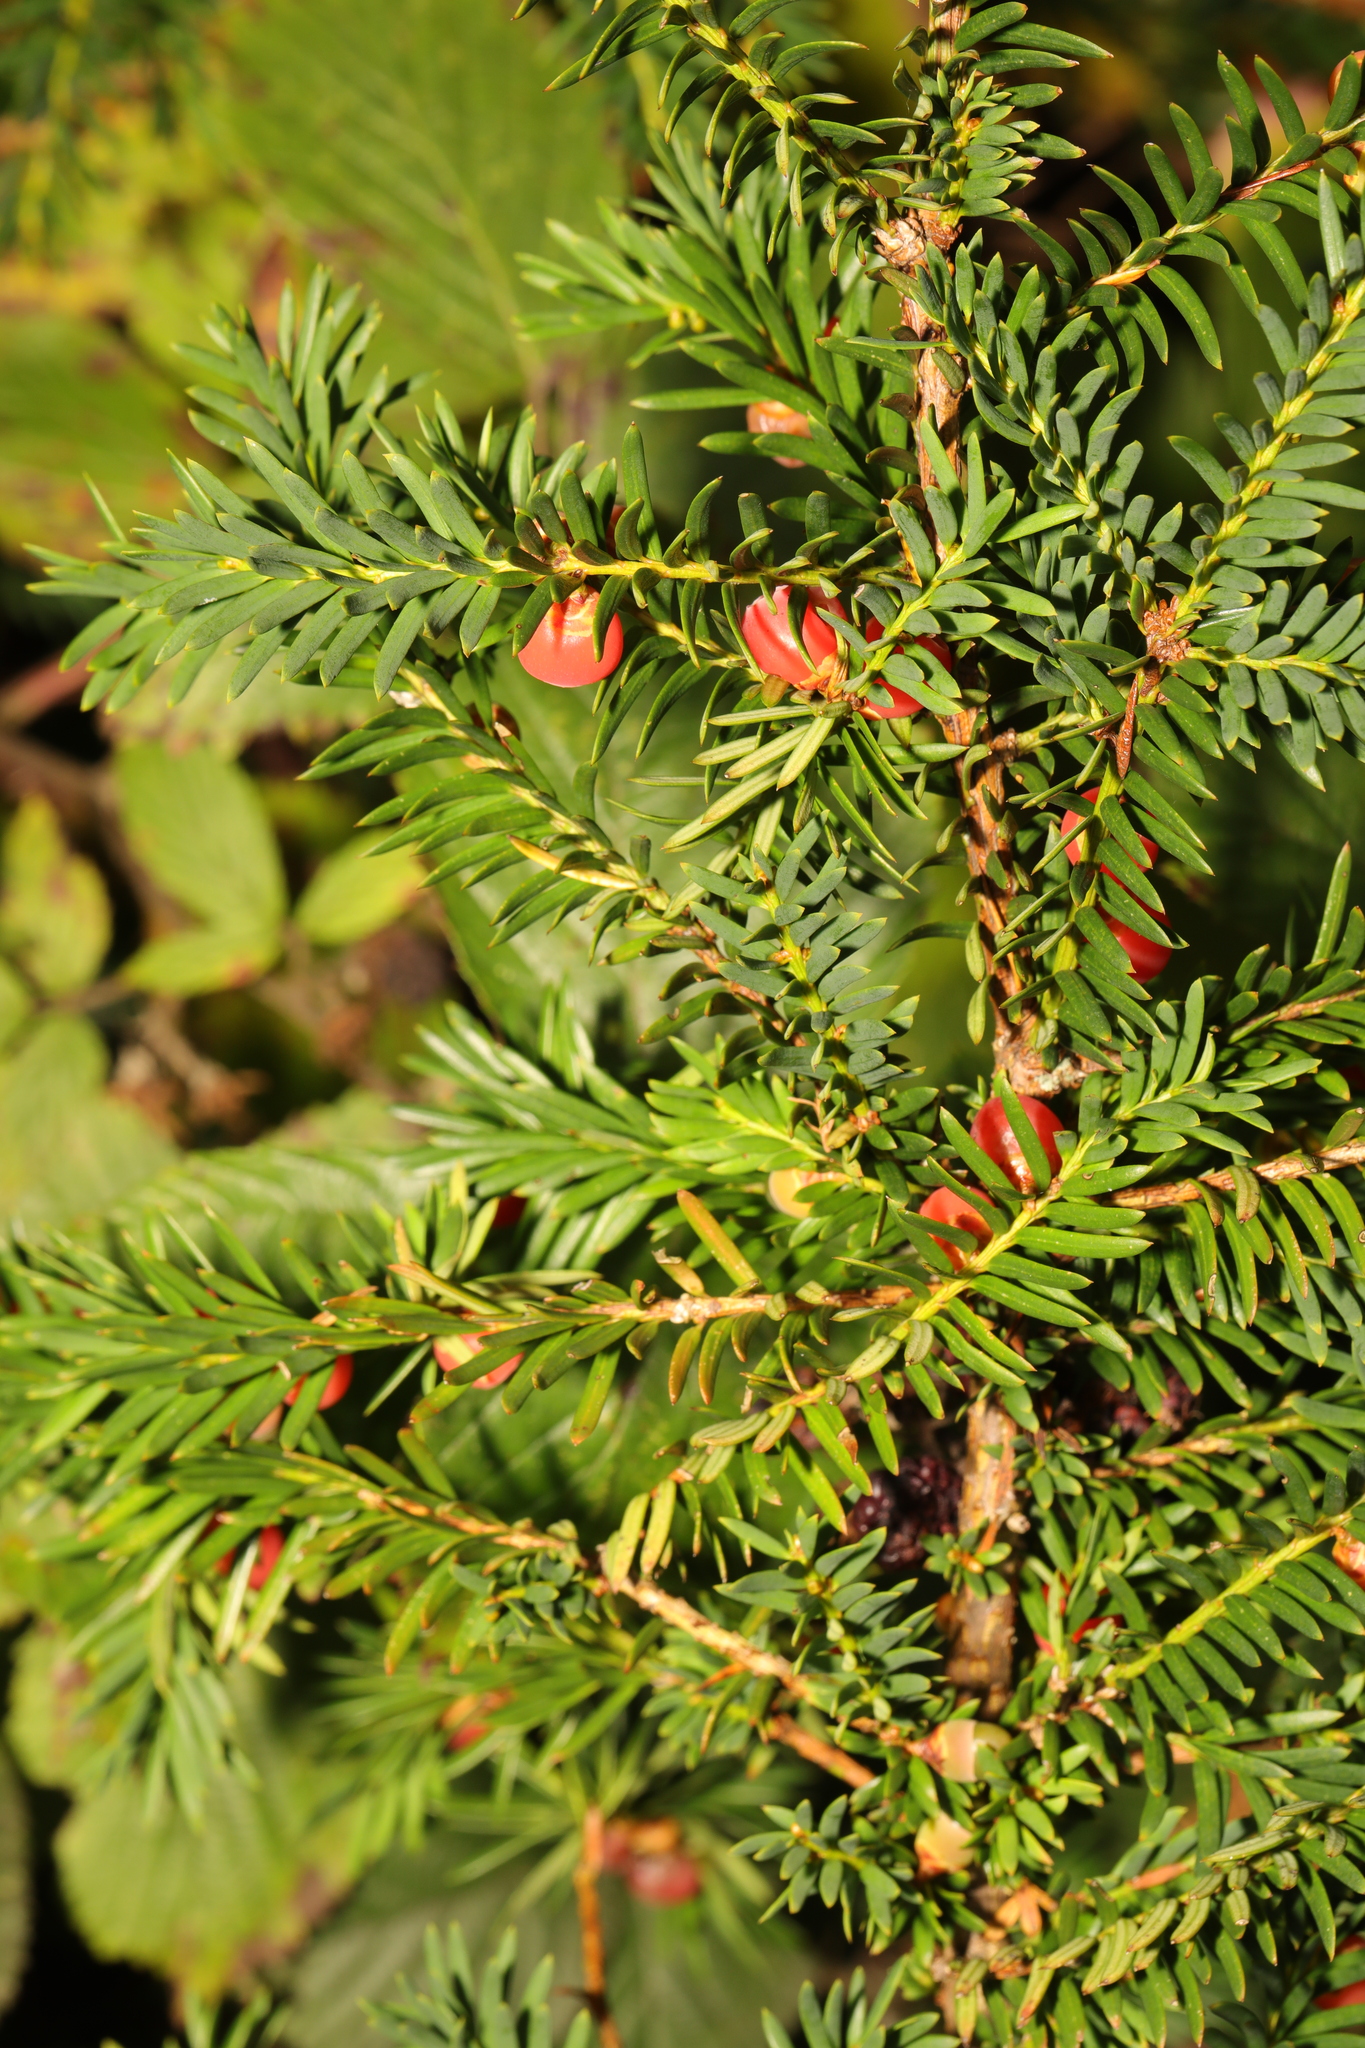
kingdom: Plantae
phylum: Tracheophyta
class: Pinopsida
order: Pinales
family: Taxaceae
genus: Taxus
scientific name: Taxus baccata
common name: Yew
